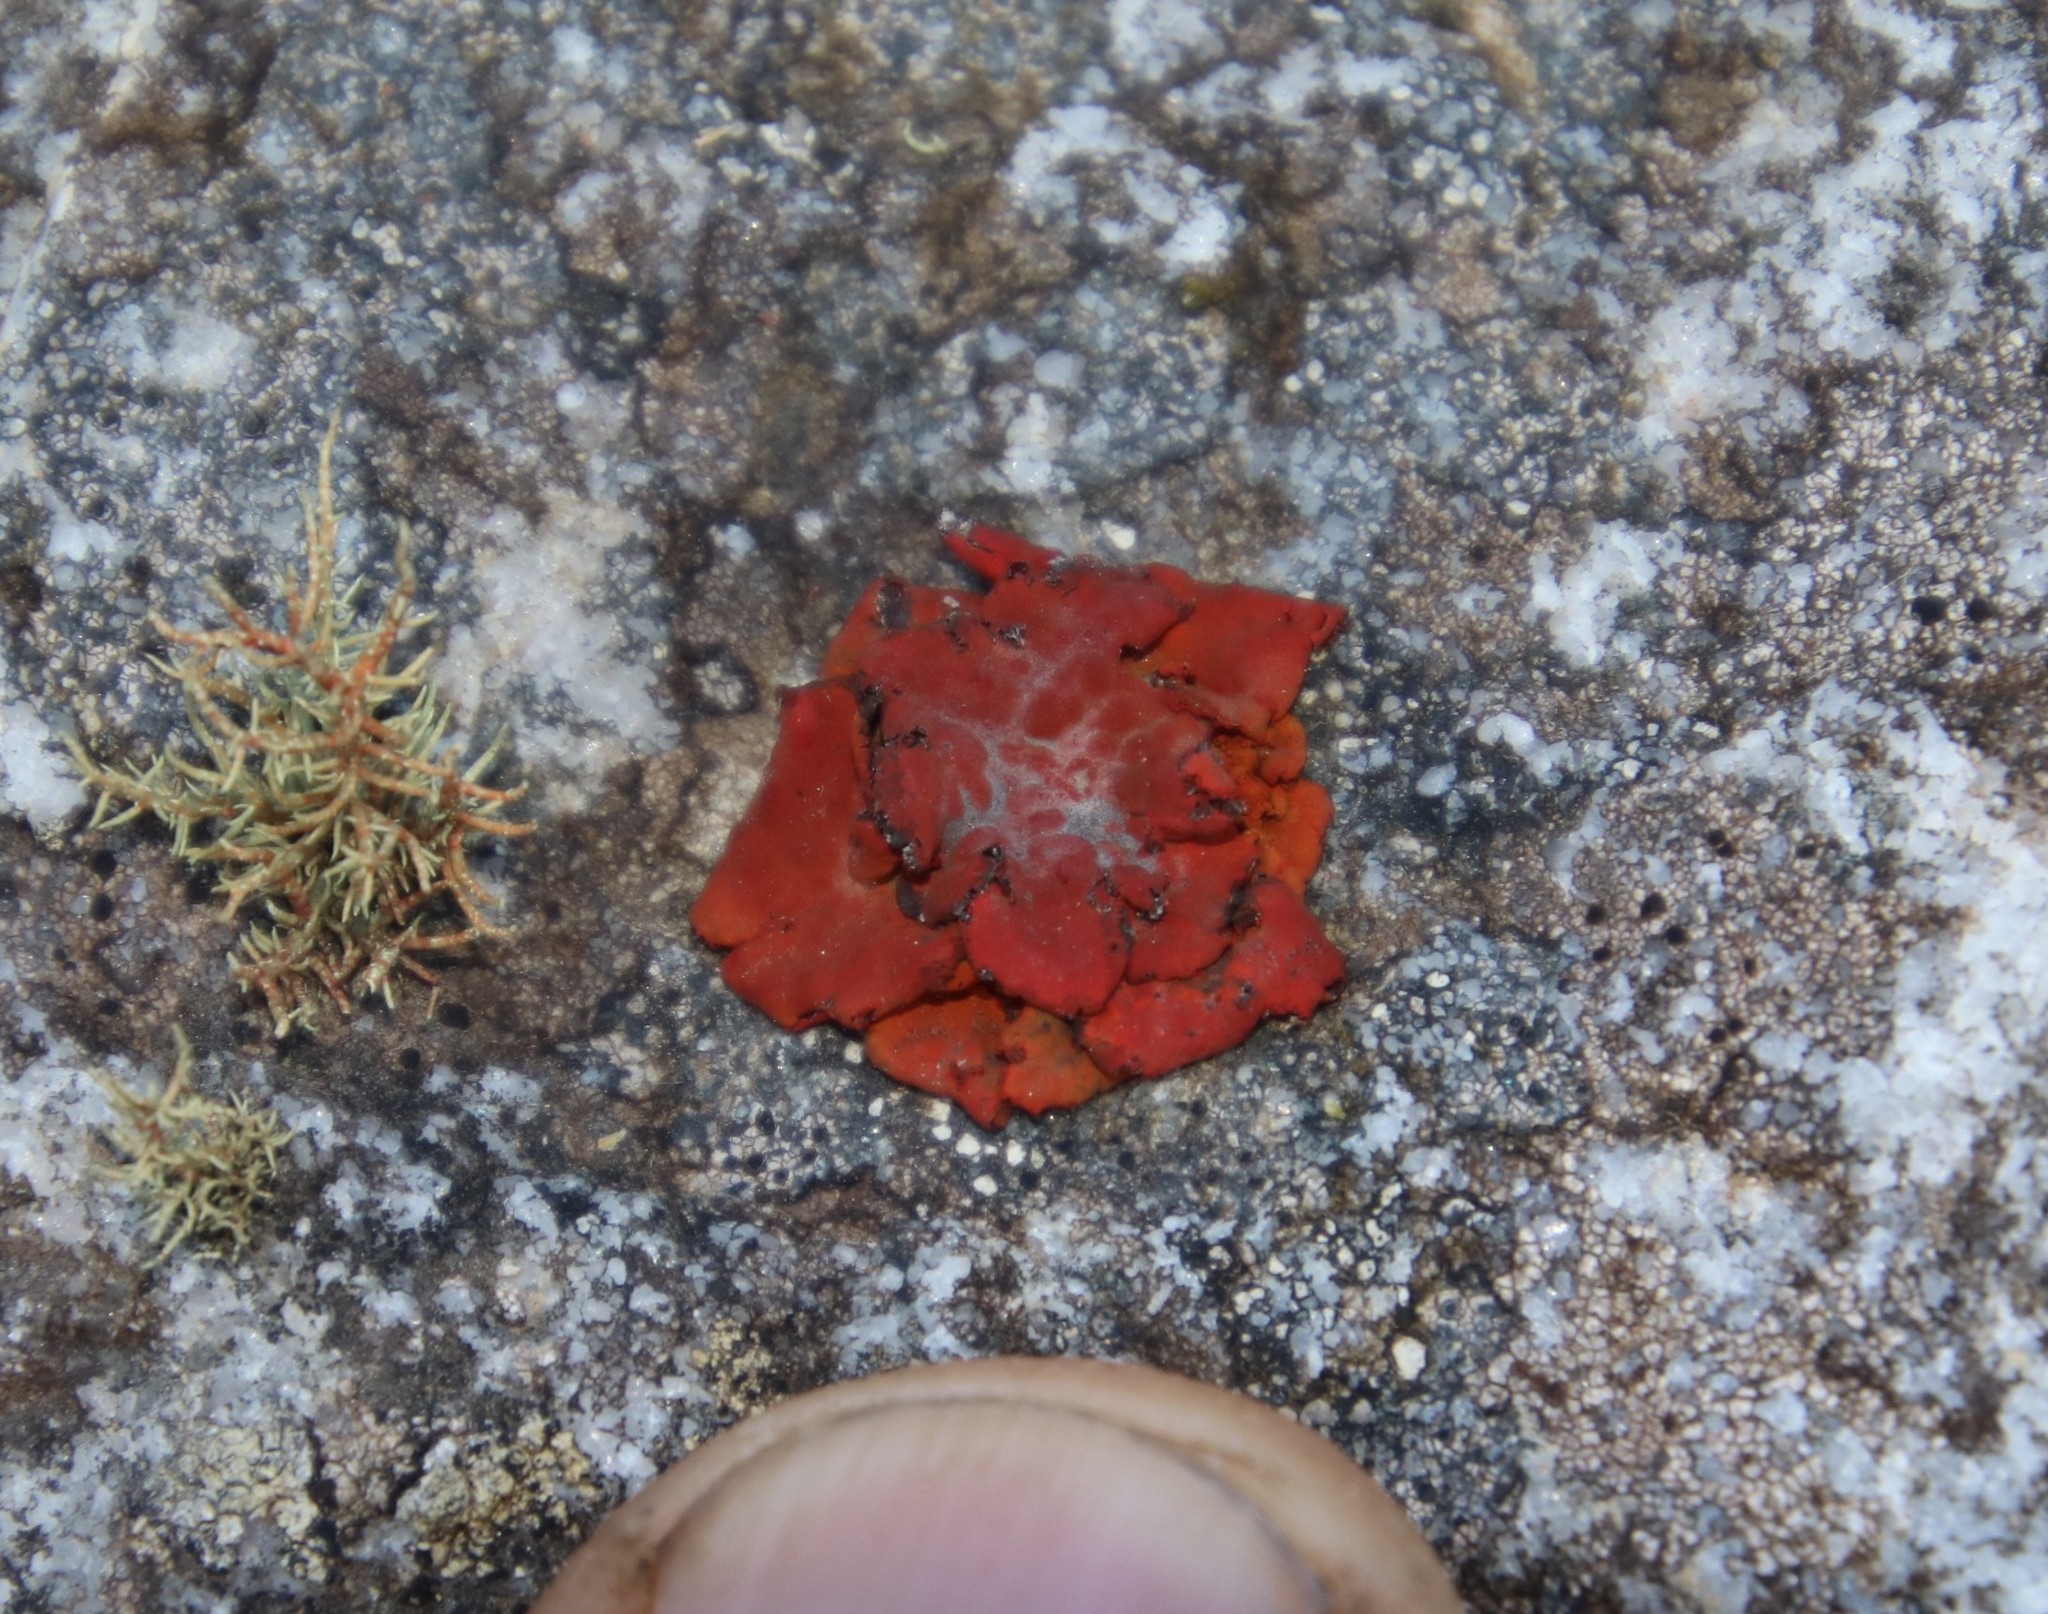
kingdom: Fungi
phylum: Ascomycota
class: Lecanoromycetes
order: Umbilicariales
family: Umbilicariaceae
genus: Lasallia
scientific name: Lasallia rubiginosa
